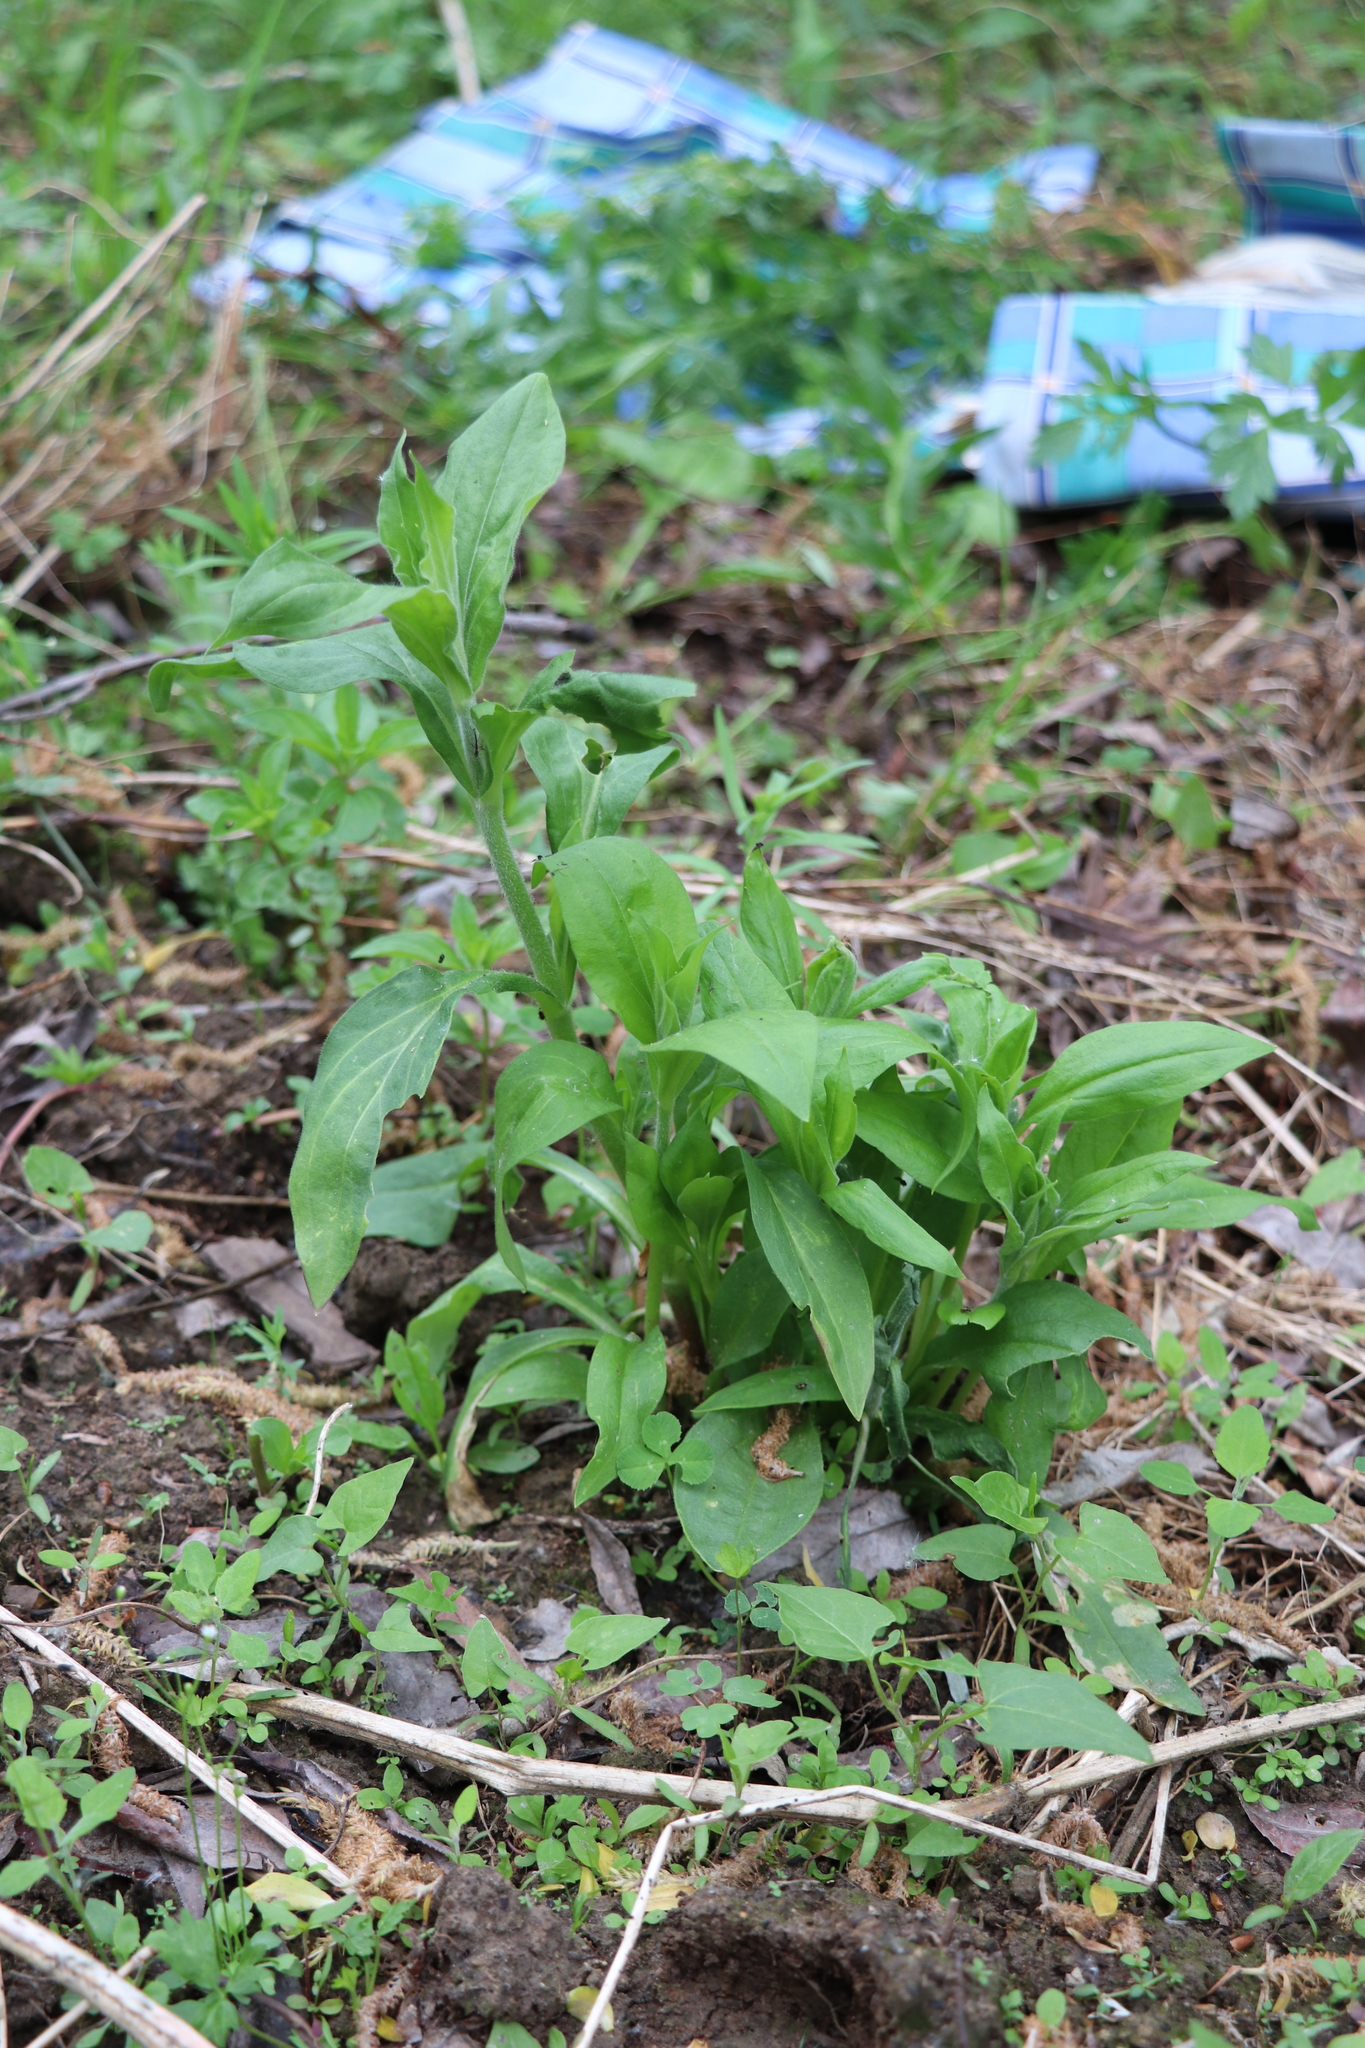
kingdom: Plantae
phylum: Tracheophyta
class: Magnoliopsida
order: Caryophyllales
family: Caryophyllaceae
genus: Silene
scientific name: Silene latifolia
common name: White campion
